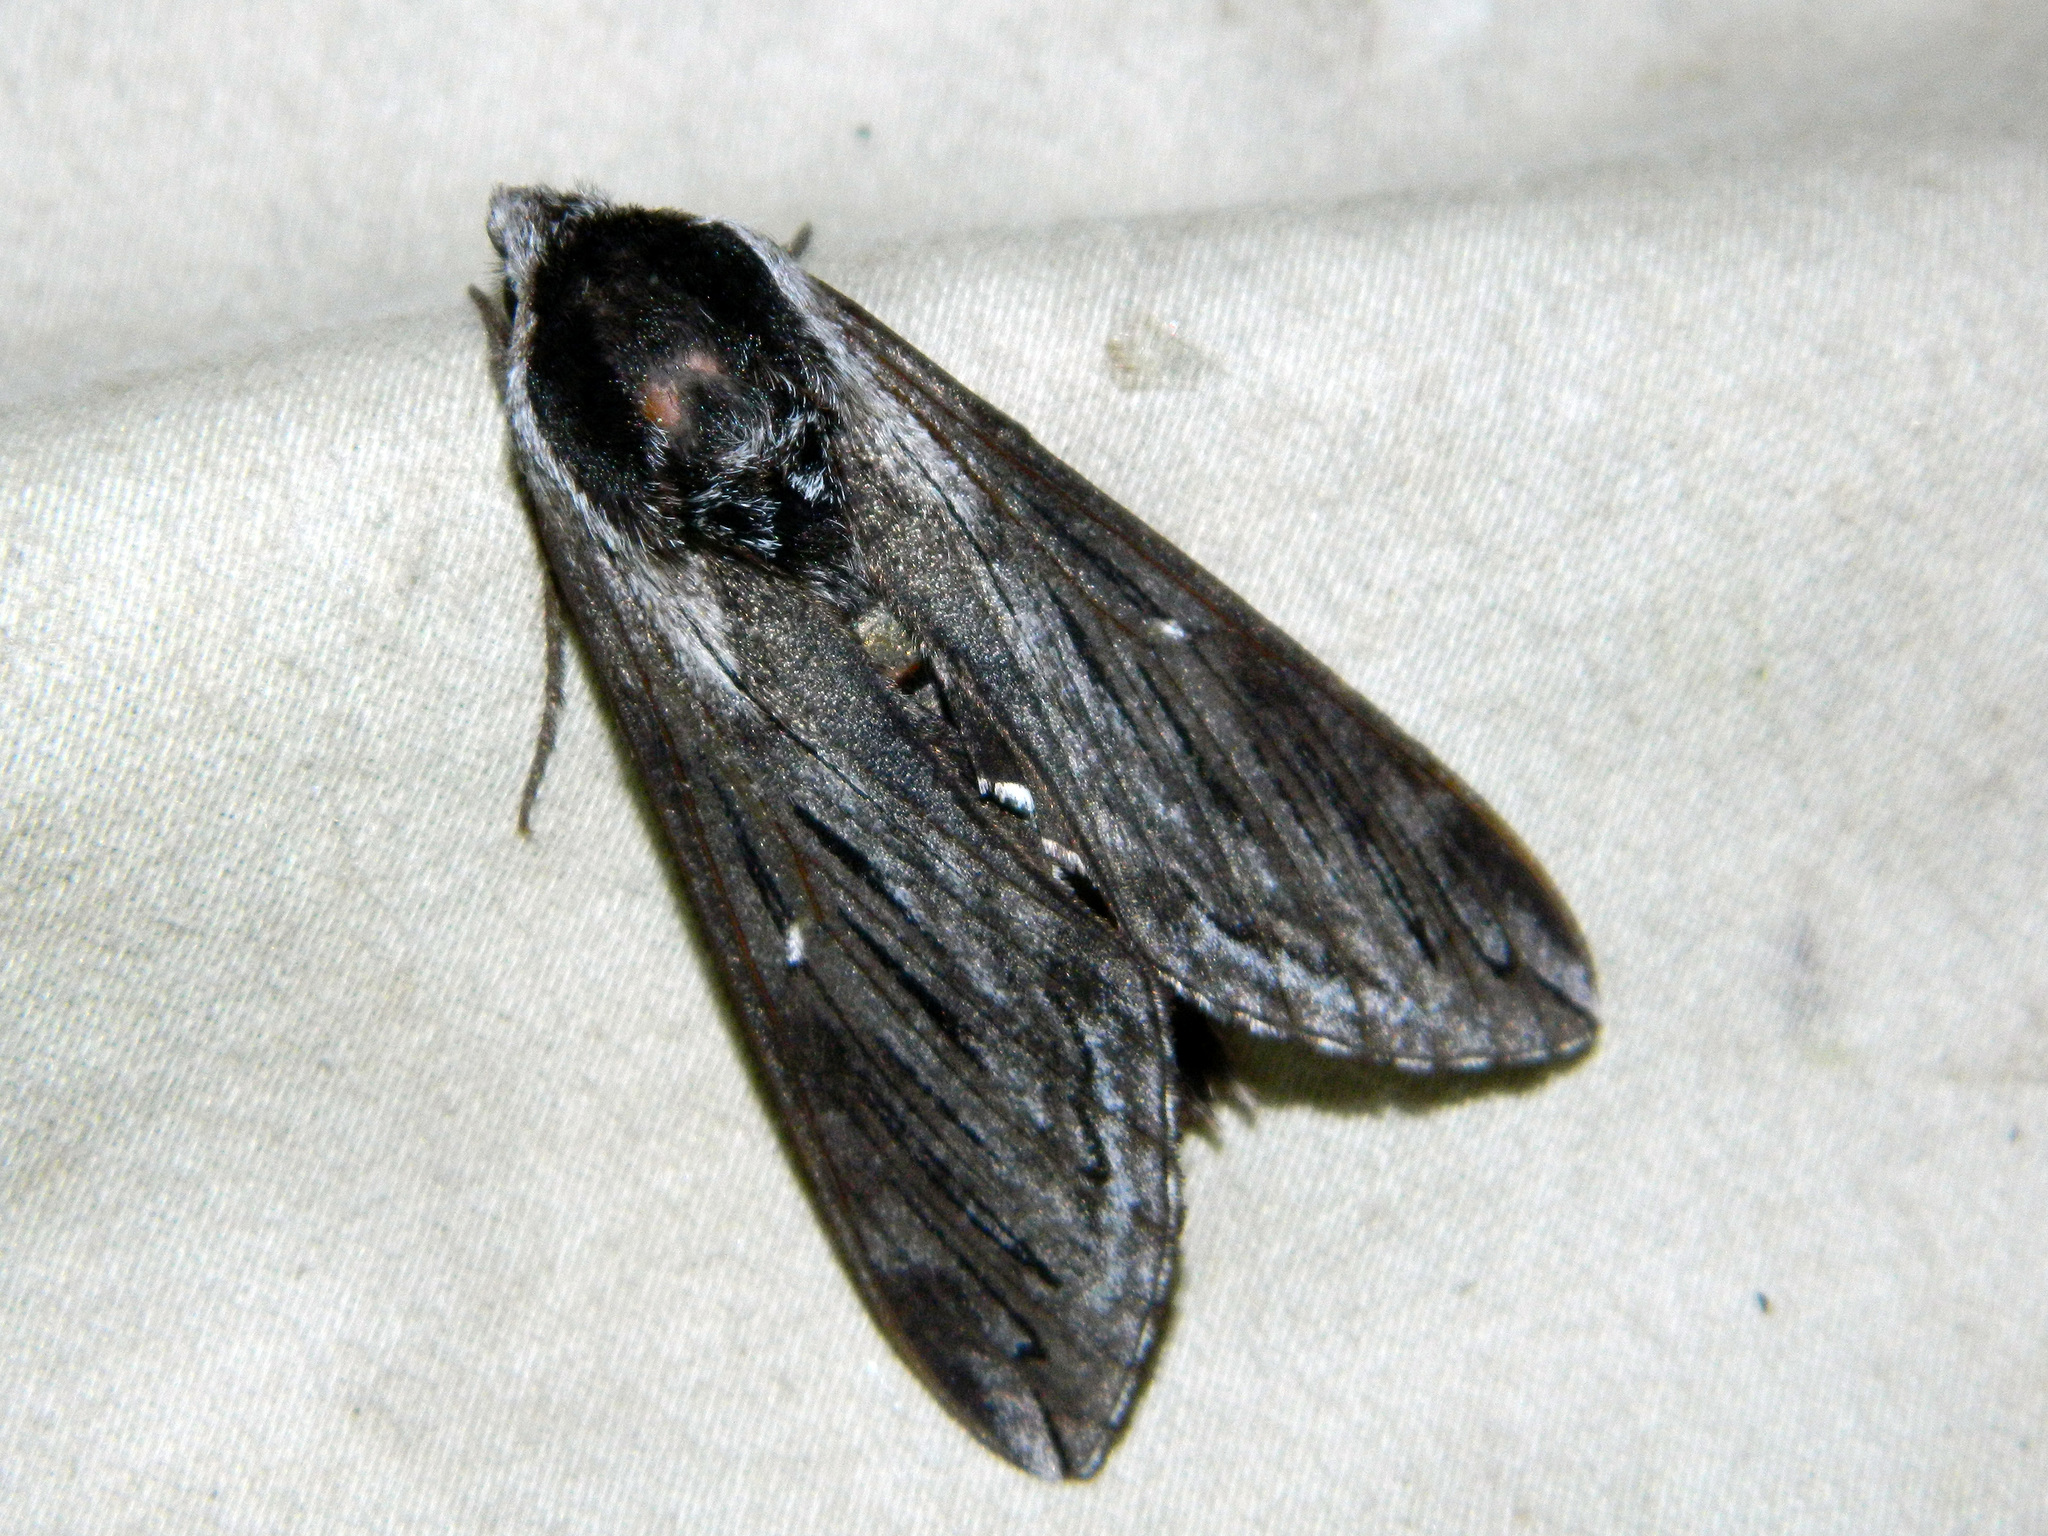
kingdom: Animalia
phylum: Arthropoda
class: Insecta
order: Lepidoptera
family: Sphingidae
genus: Sphinx
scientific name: Sphinx poecila
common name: Northern apple sphinx
